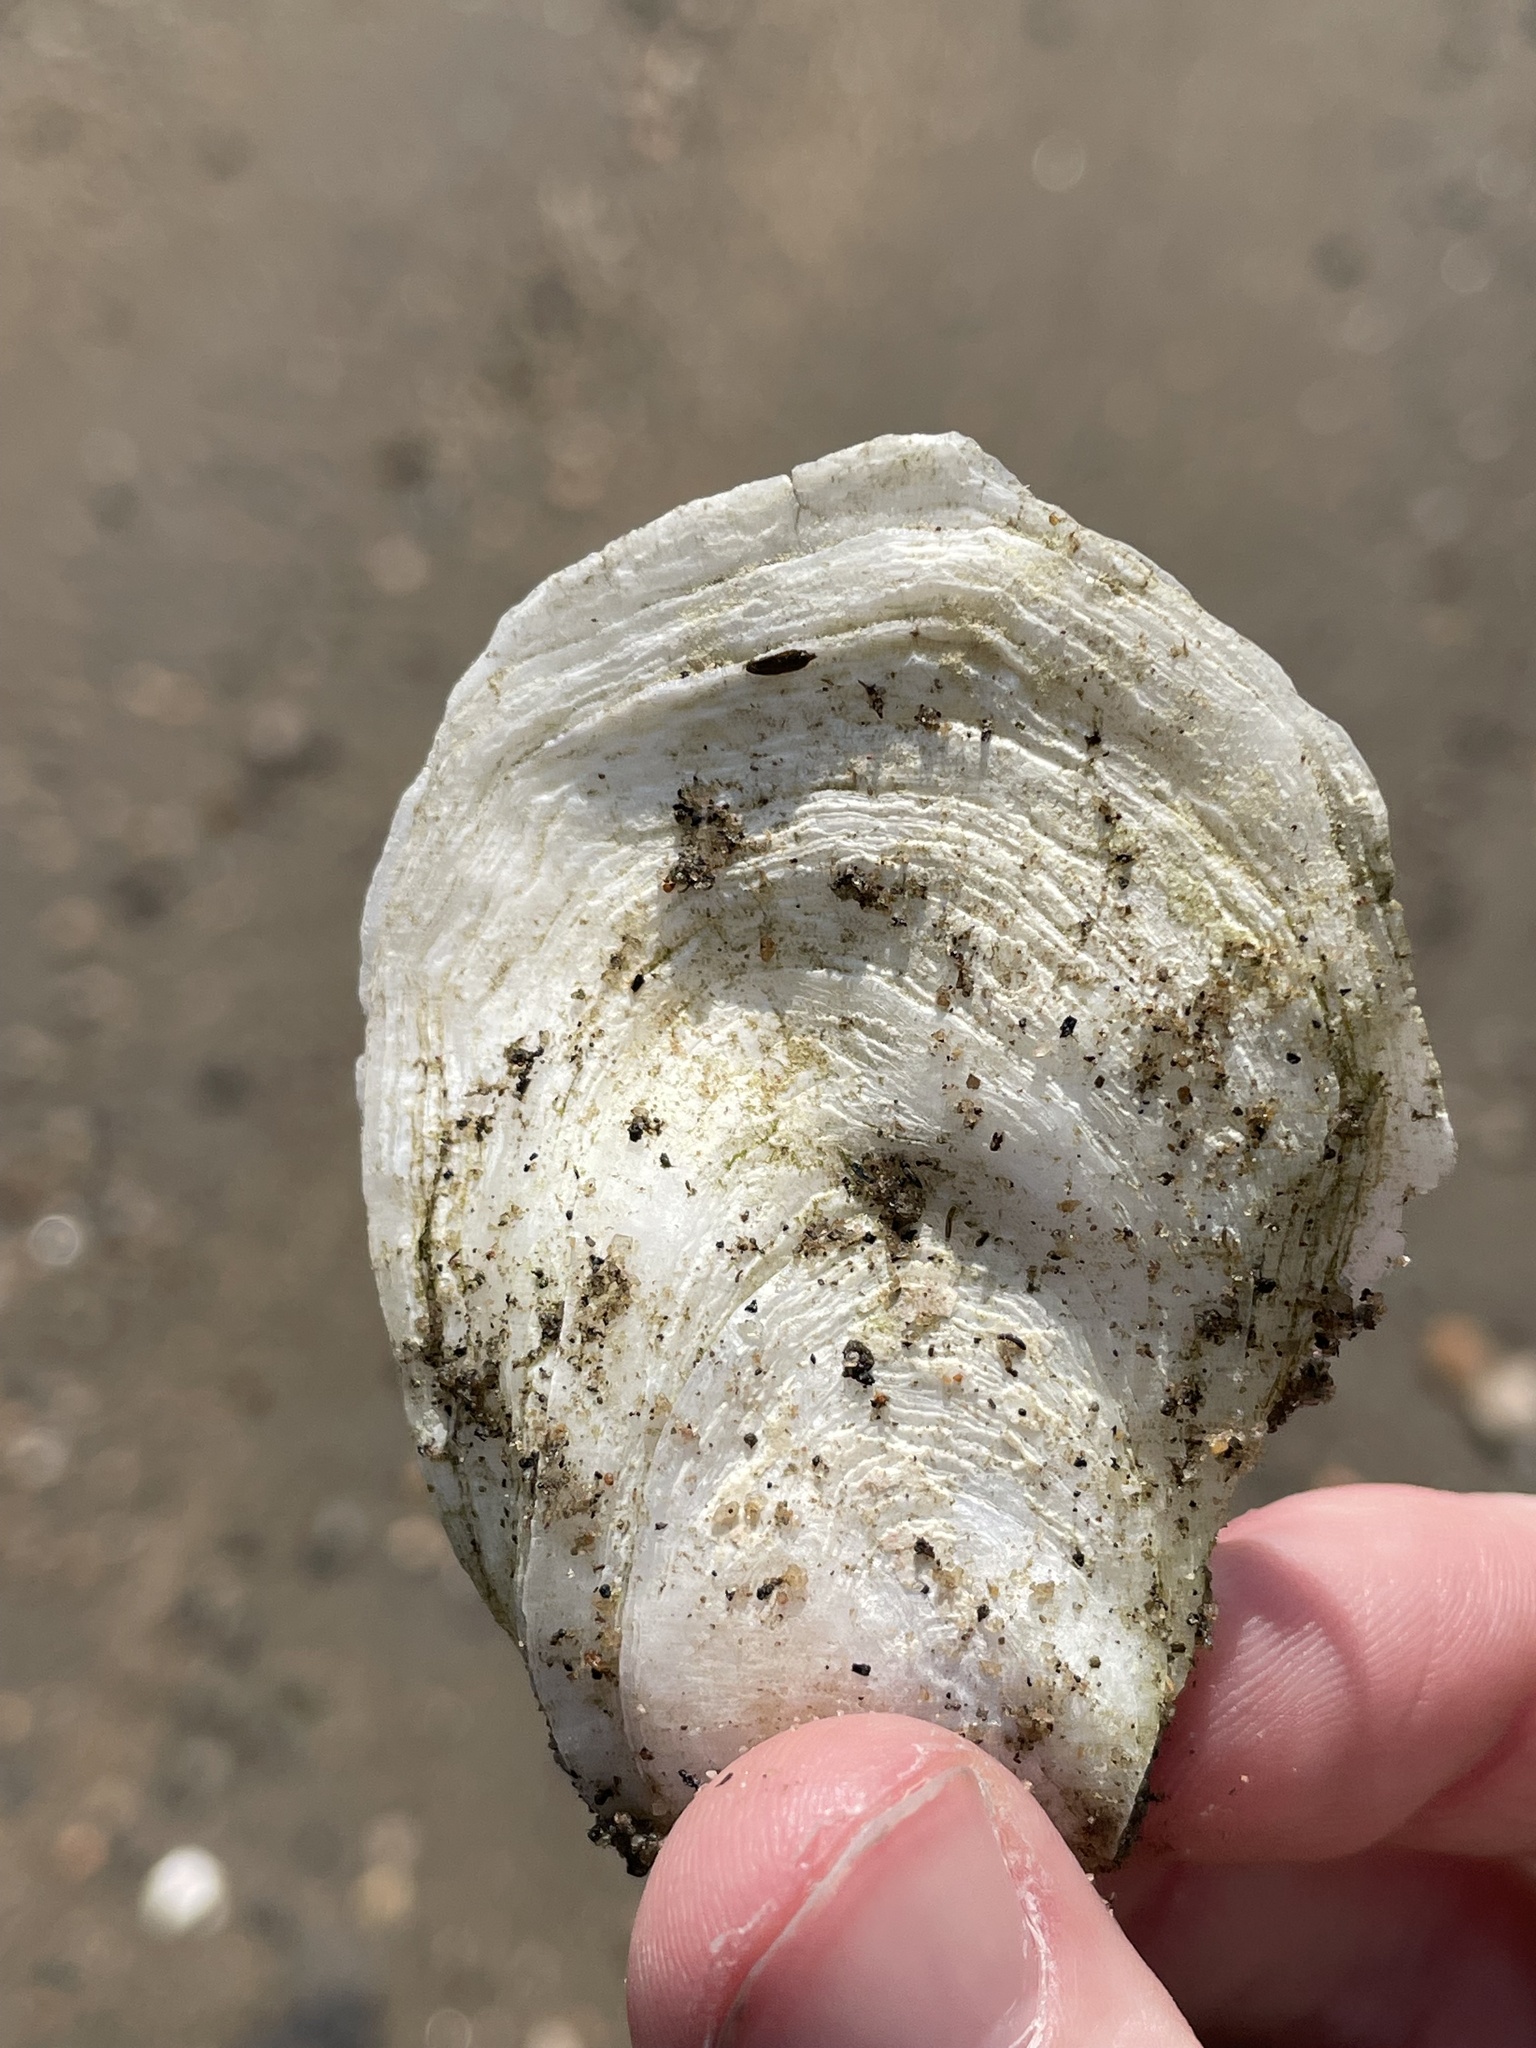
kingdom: Animalia
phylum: Mollusca
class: Bivalvia
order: Ostreida
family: Ostreidae
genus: Crassostrea
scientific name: Crassostrea virginica
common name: American oyster
